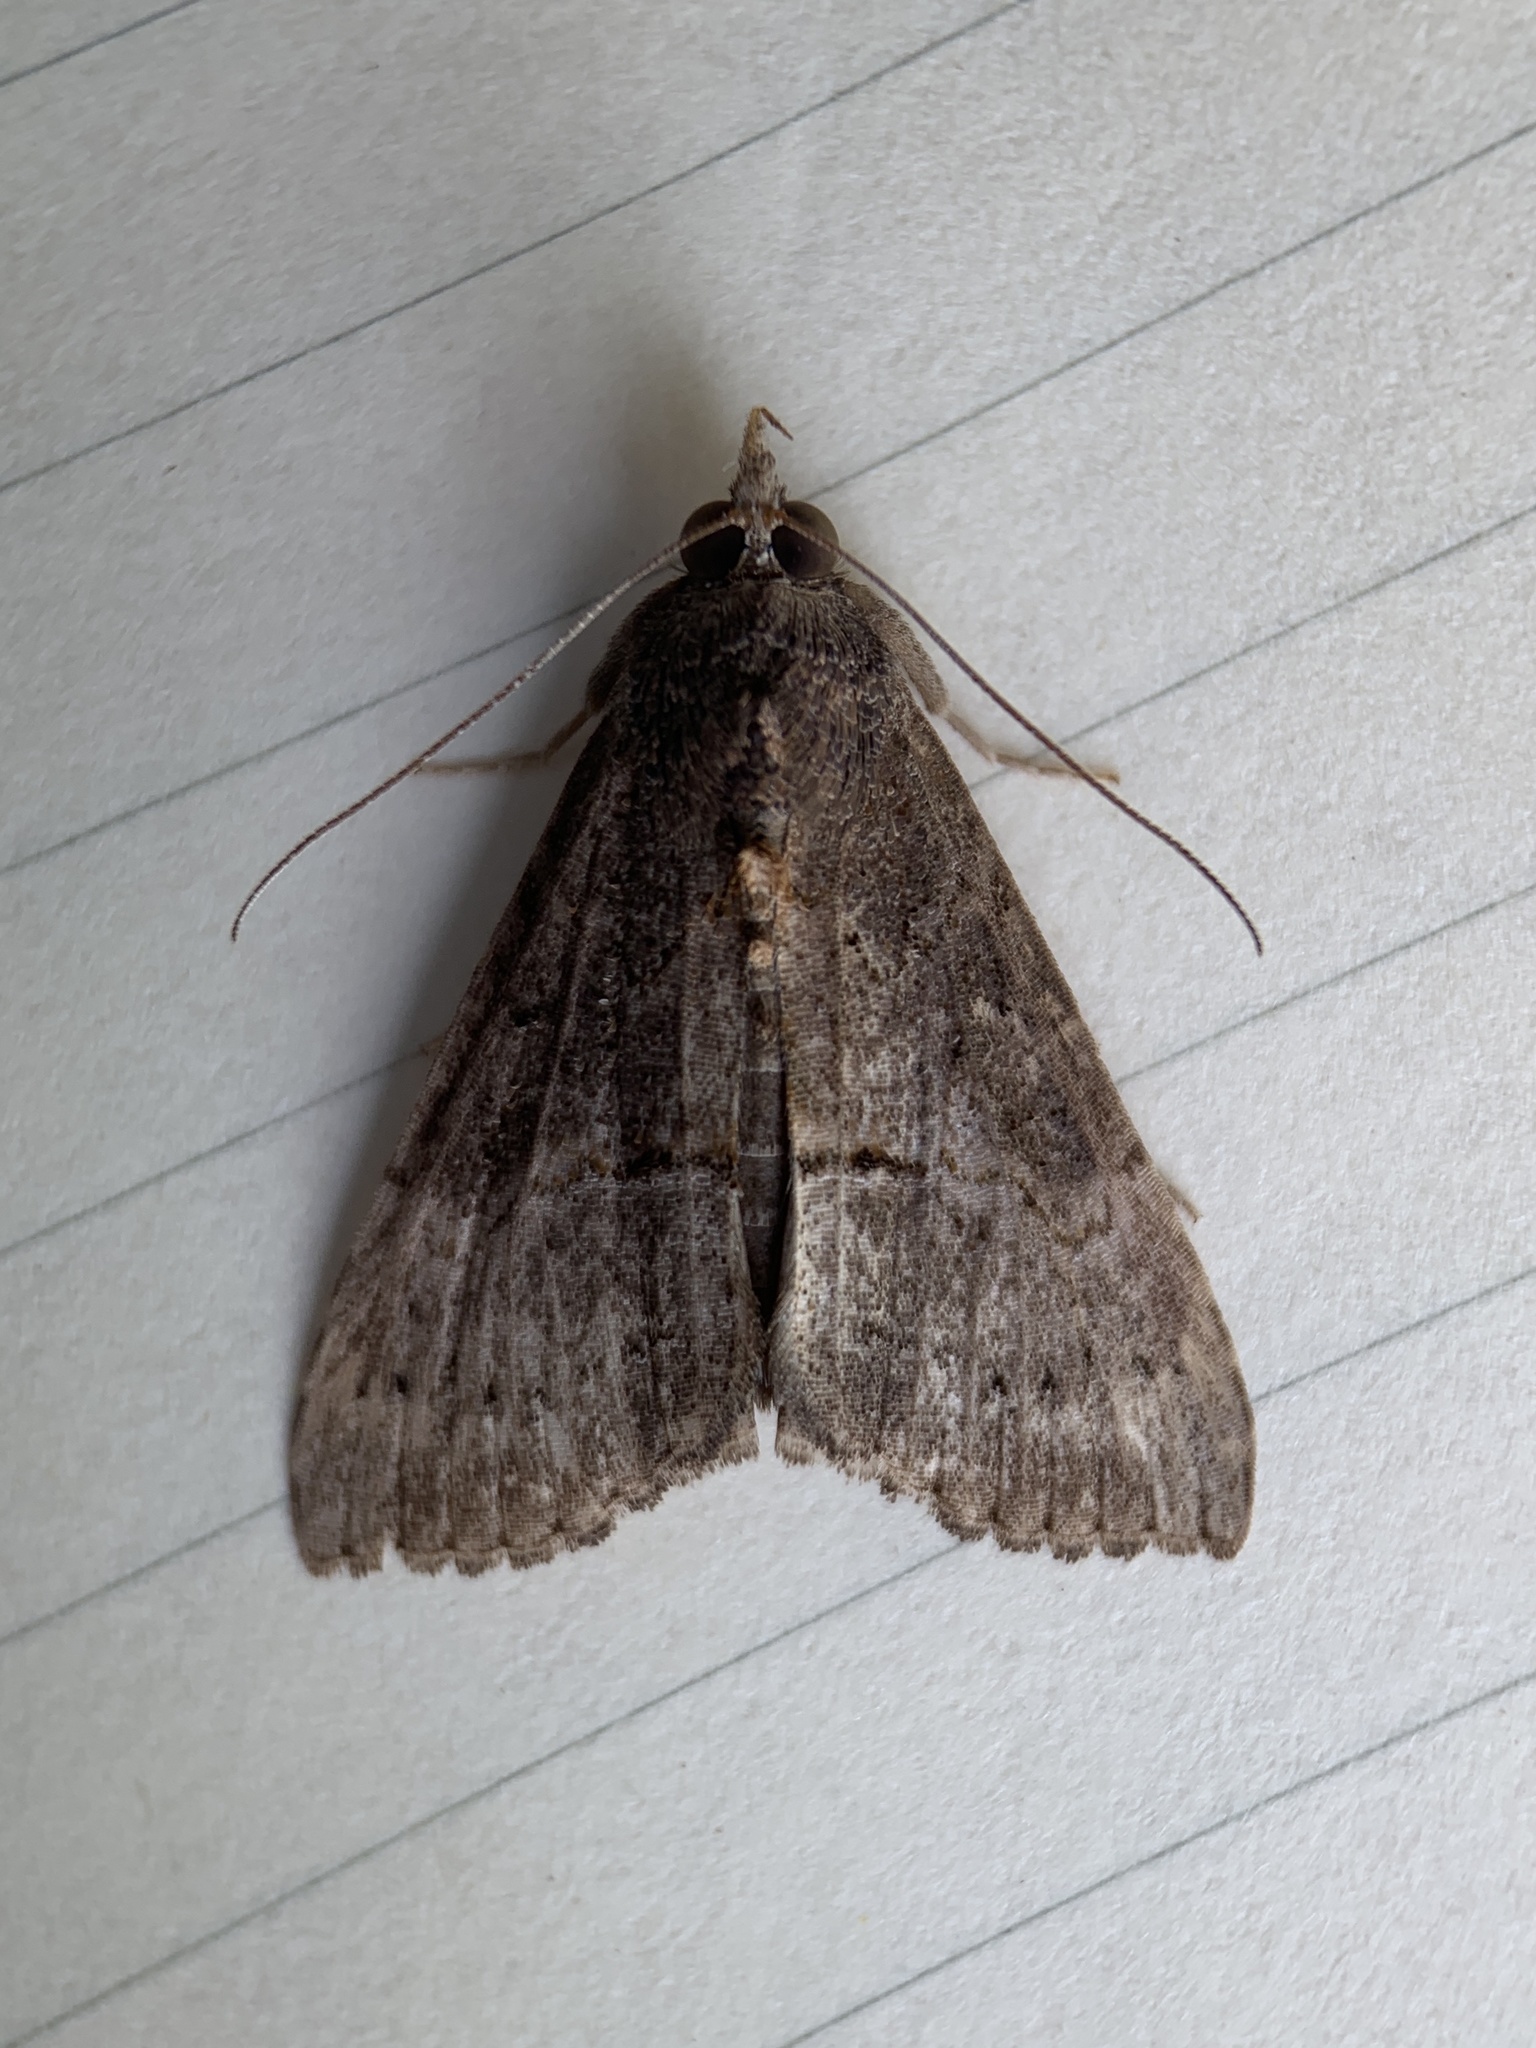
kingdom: Animalia
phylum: Arthropoda
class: Insecta
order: Lepidoptera
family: Erebidae
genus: Hypena
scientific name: Hypena scabra
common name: Green cloverworm
